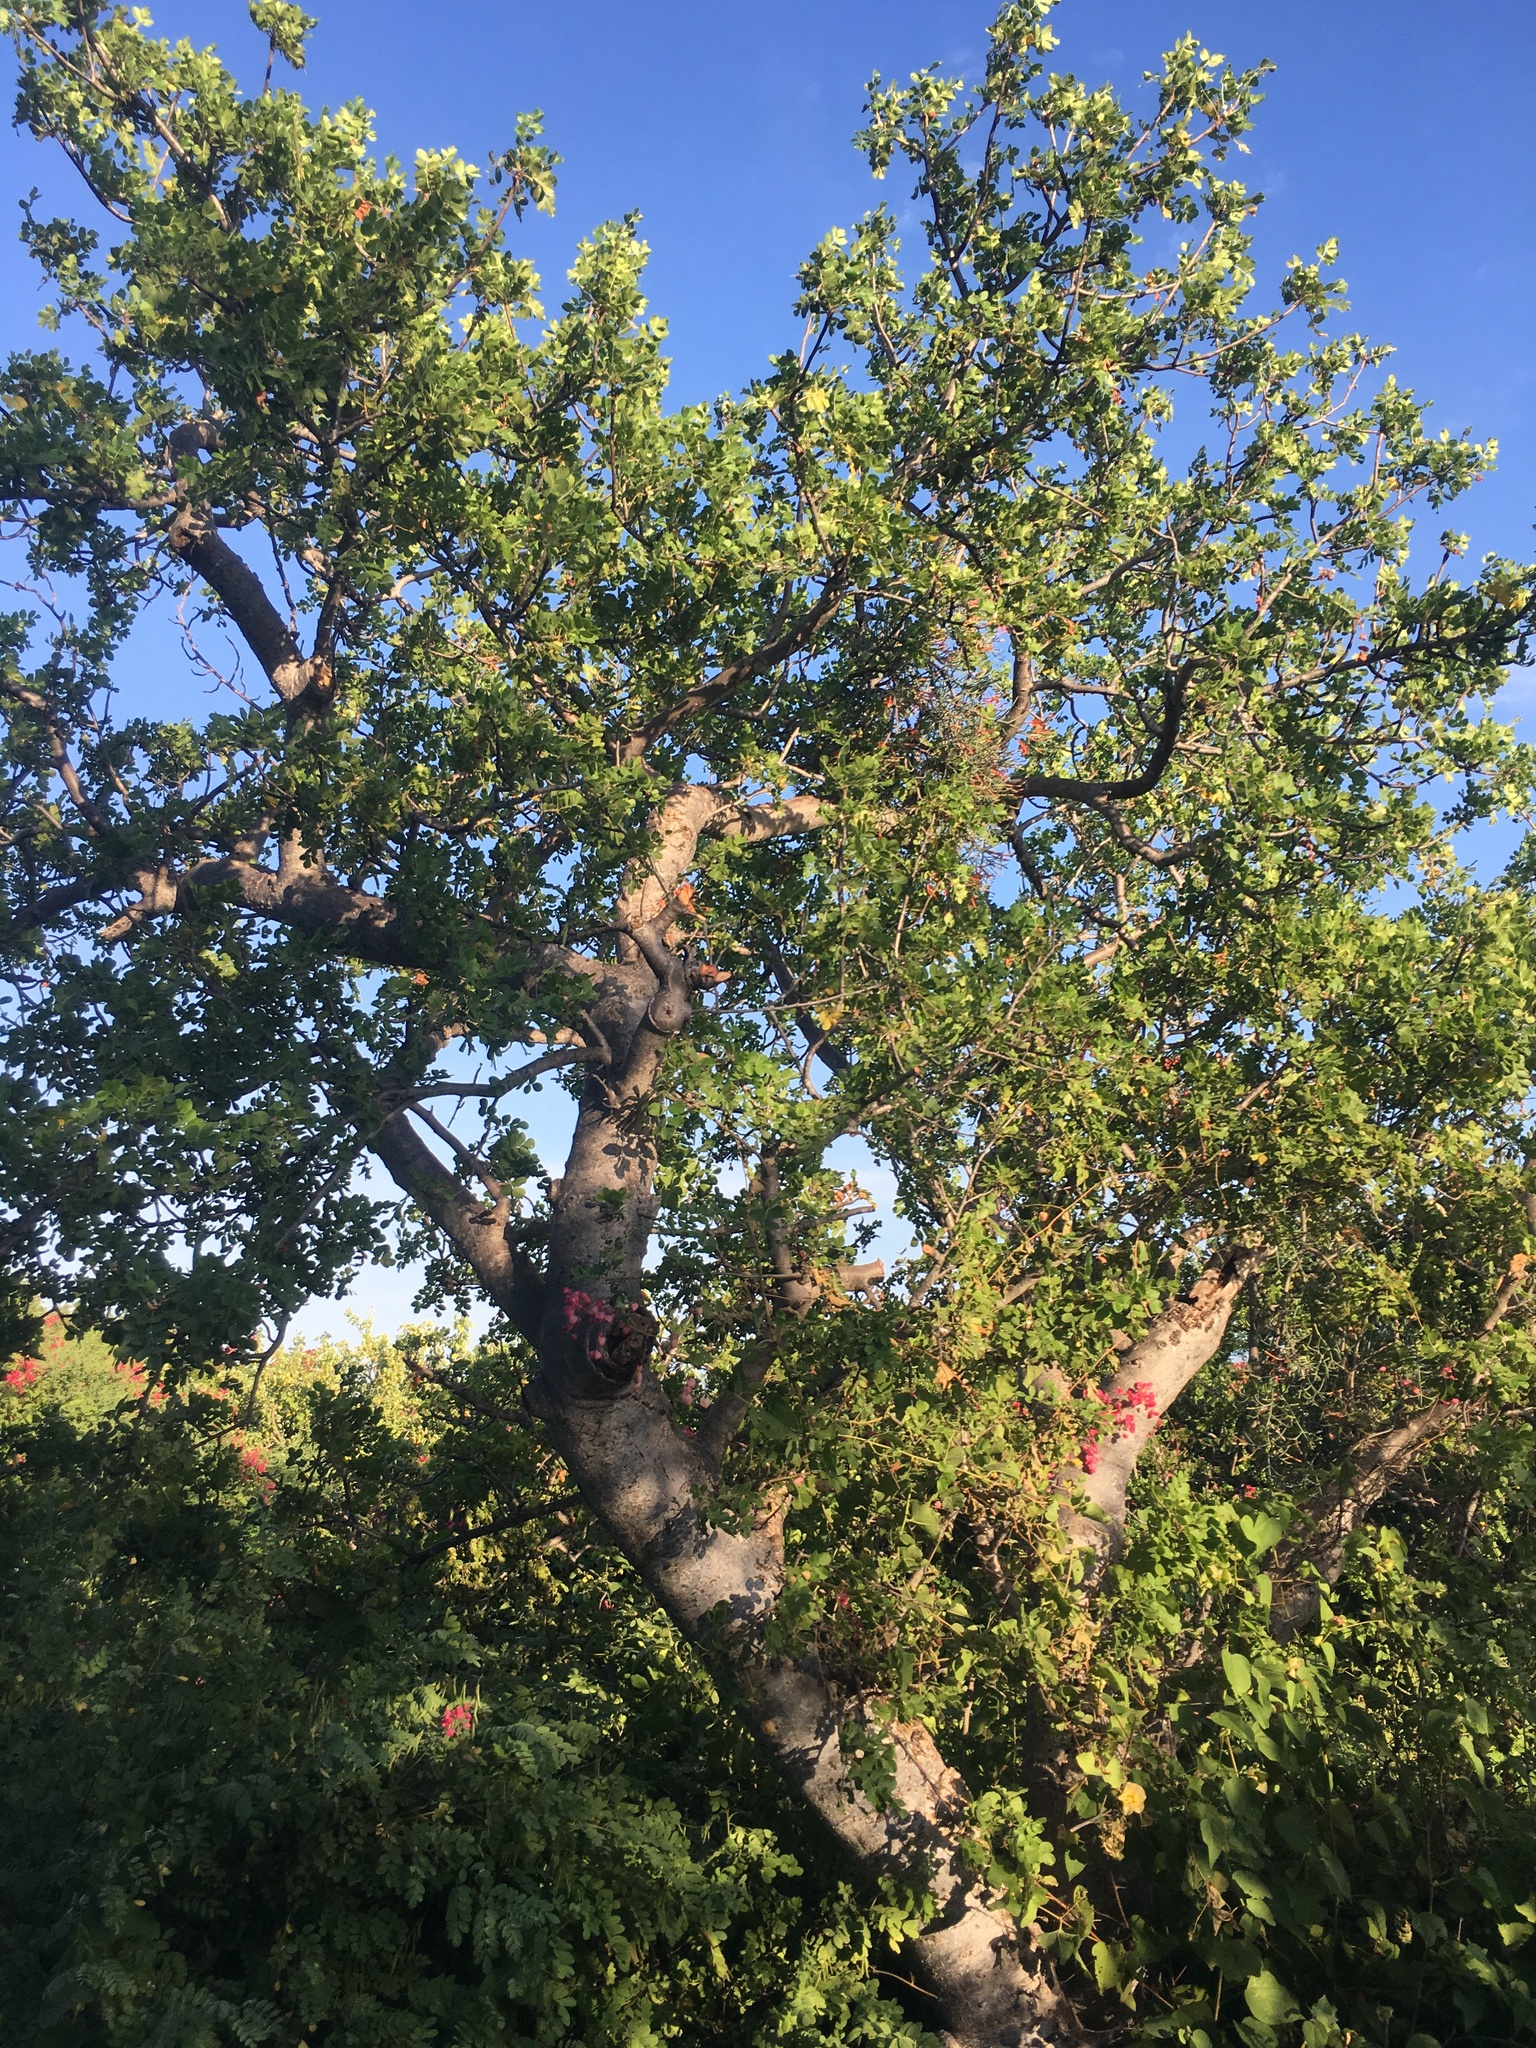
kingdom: Plantae
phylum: Tracheophyta
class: Magnoliopsida
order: Sapindales
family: Anacardiaceae
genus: Cyrtocarpa
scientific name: Cyrtocarpa edulis
